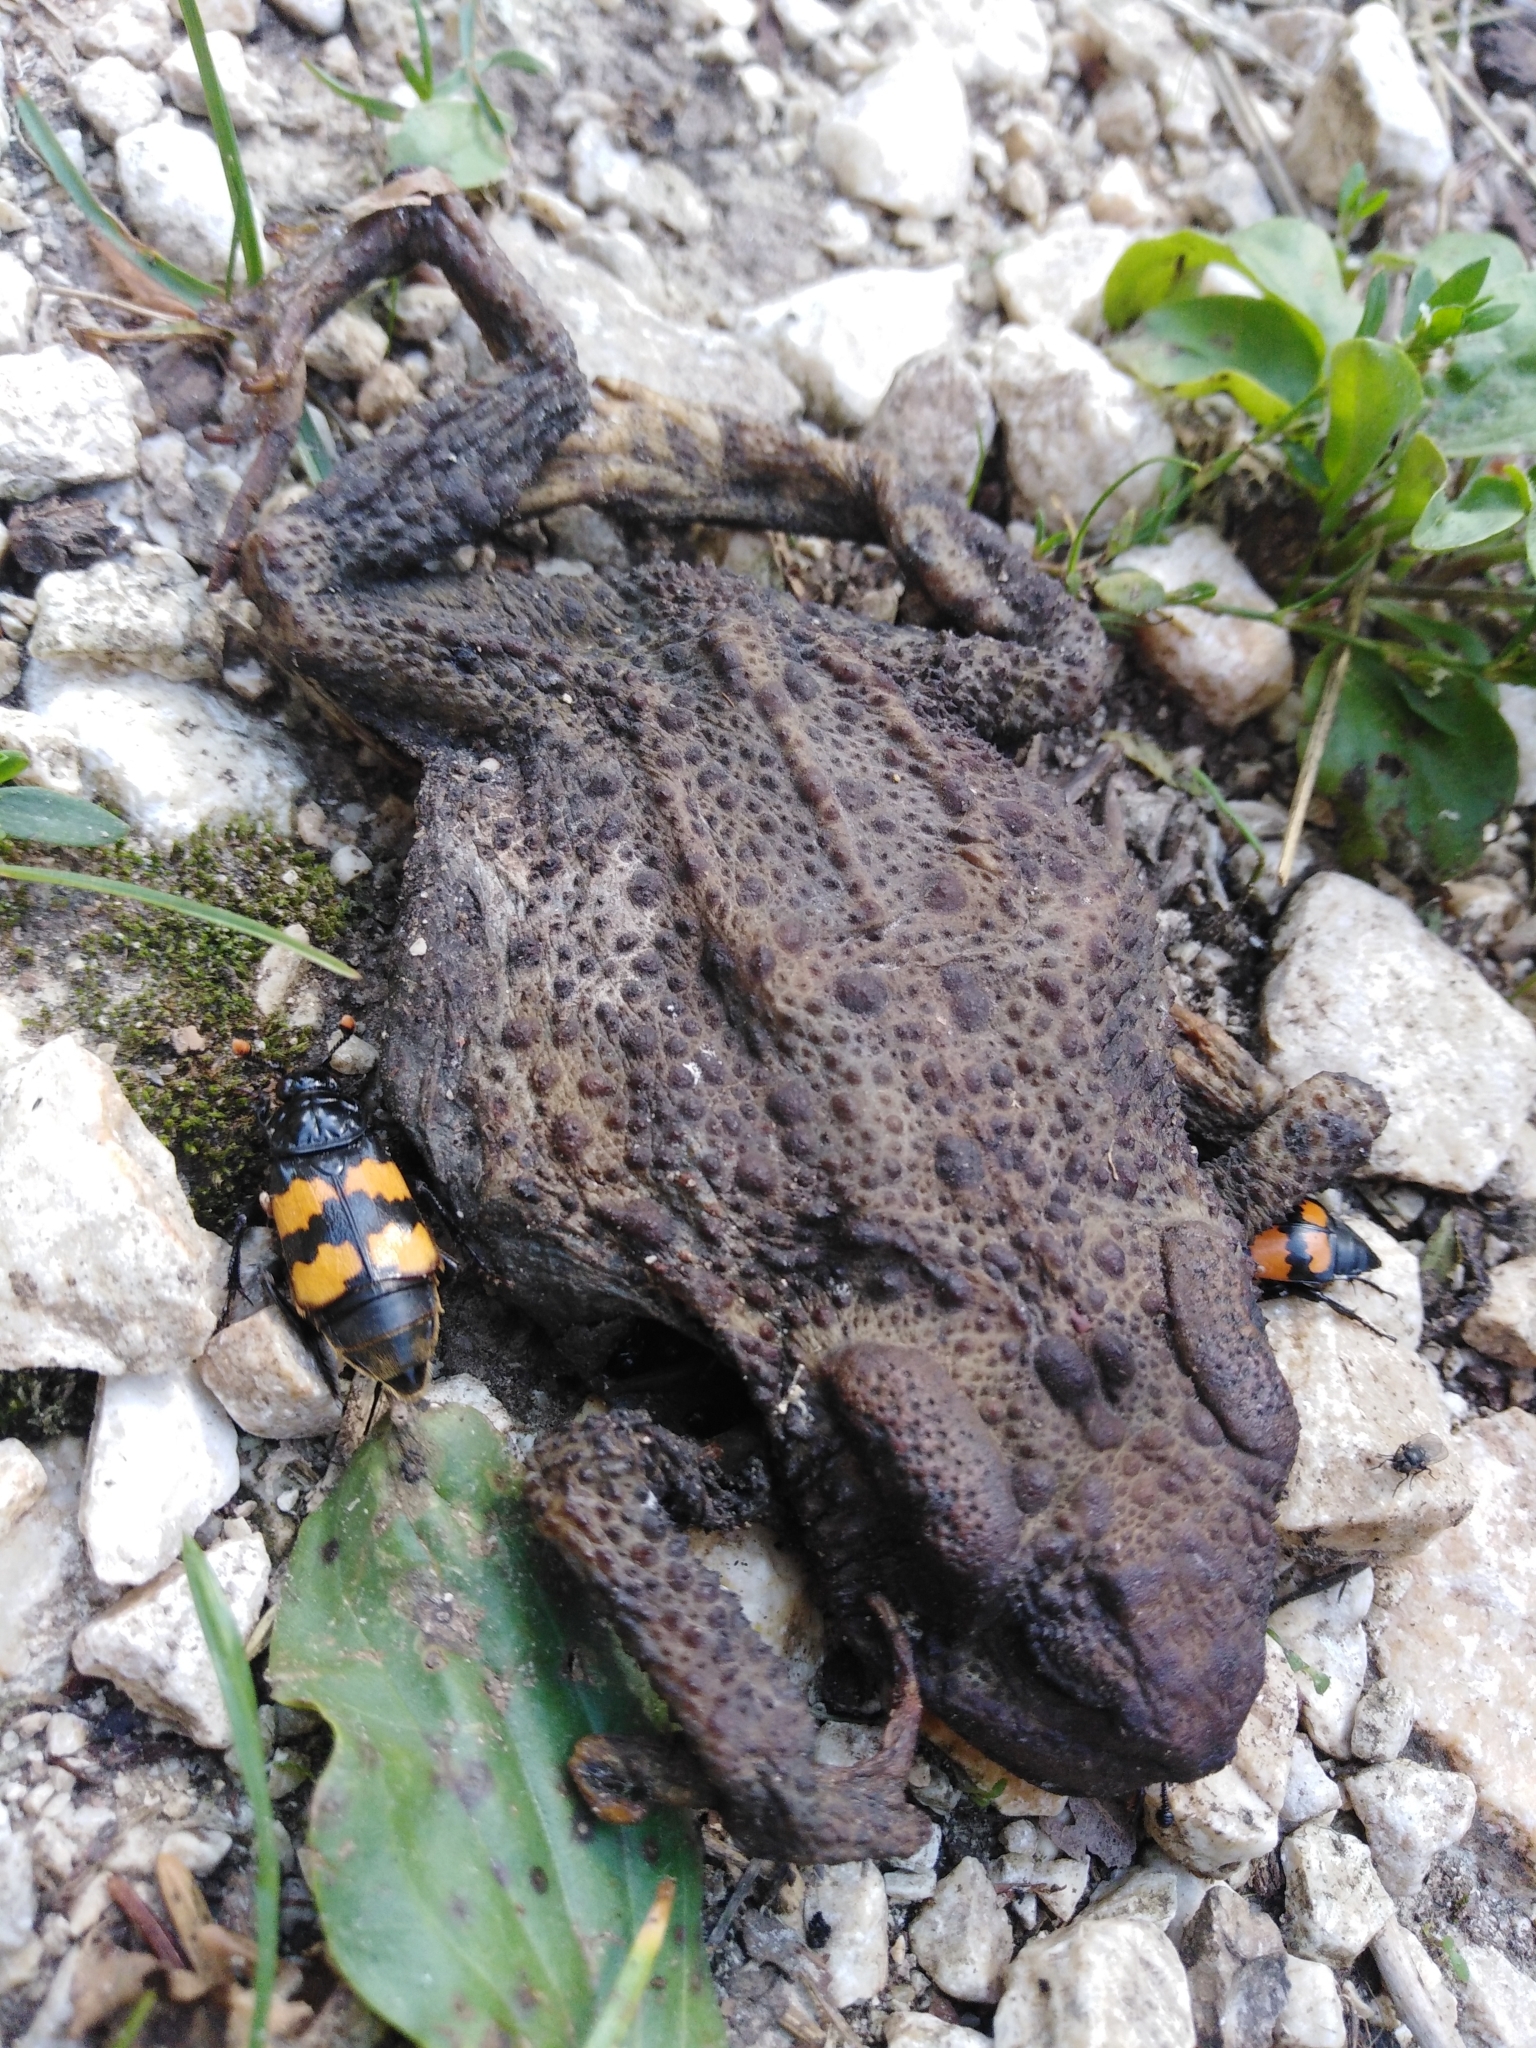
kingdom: Animalia
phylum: Chordata
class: Amphibia
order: Anura
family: Bufonidae
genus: Bufo
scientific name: Bufo bufo
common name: Common toad
